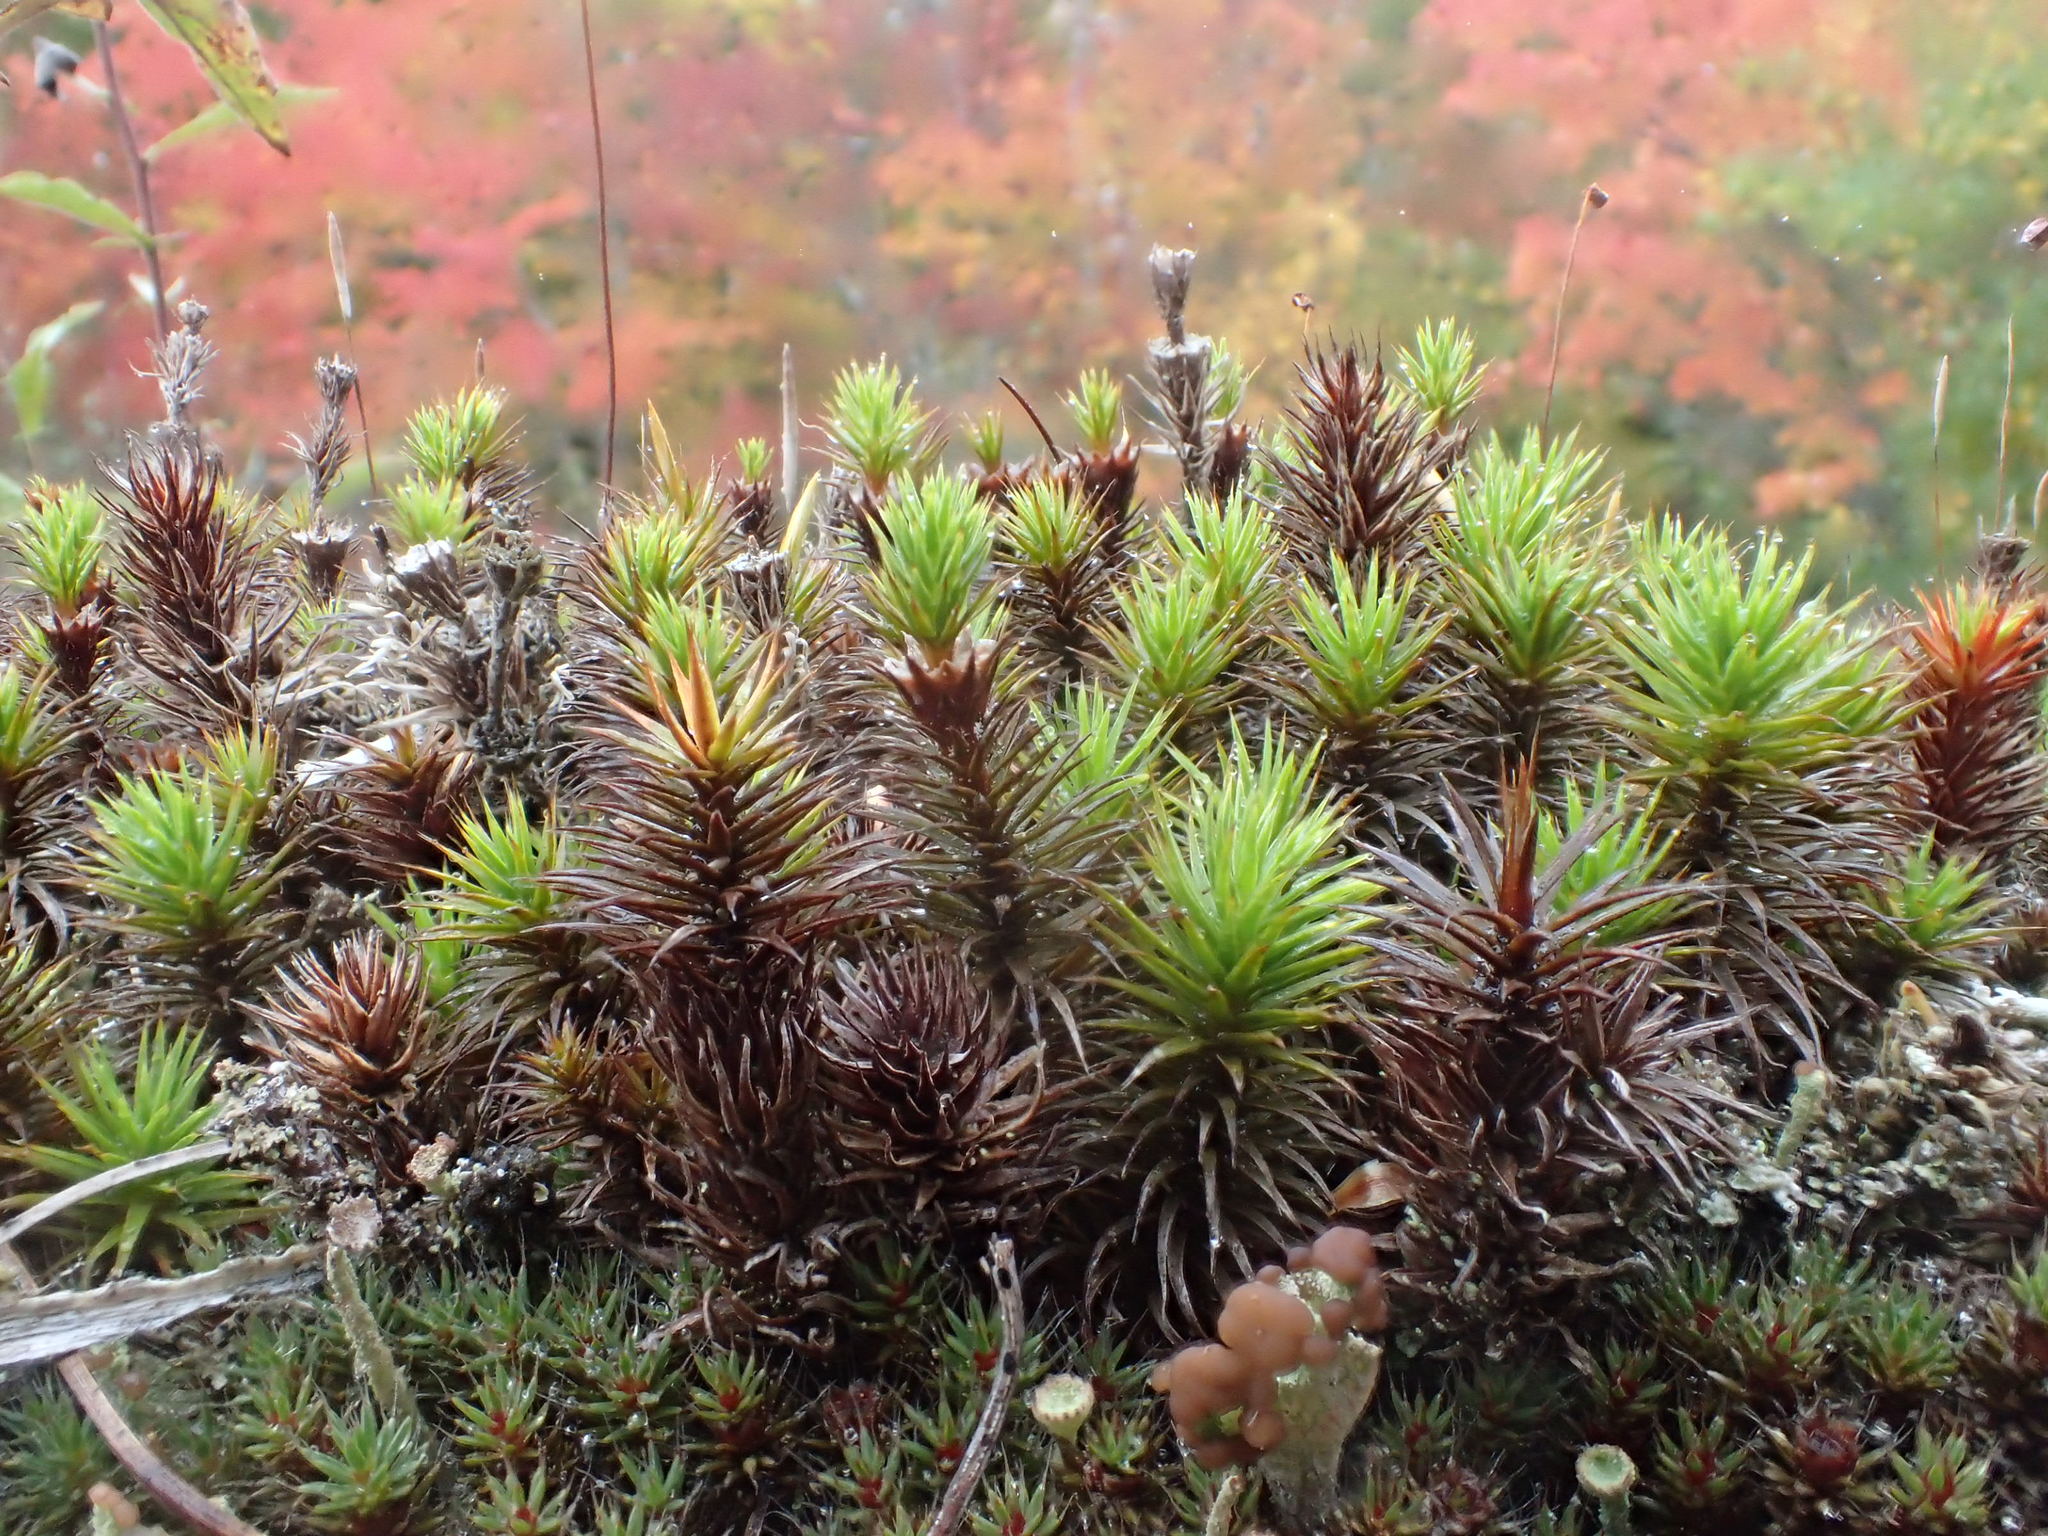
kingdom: Plantae
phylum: Bryophyta
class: Polytrichopsida
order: Polytrichales
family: Polytrichaceae
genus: Polytrichum
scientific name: Polytrichum juniperinum
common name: Juniper haircap moss
